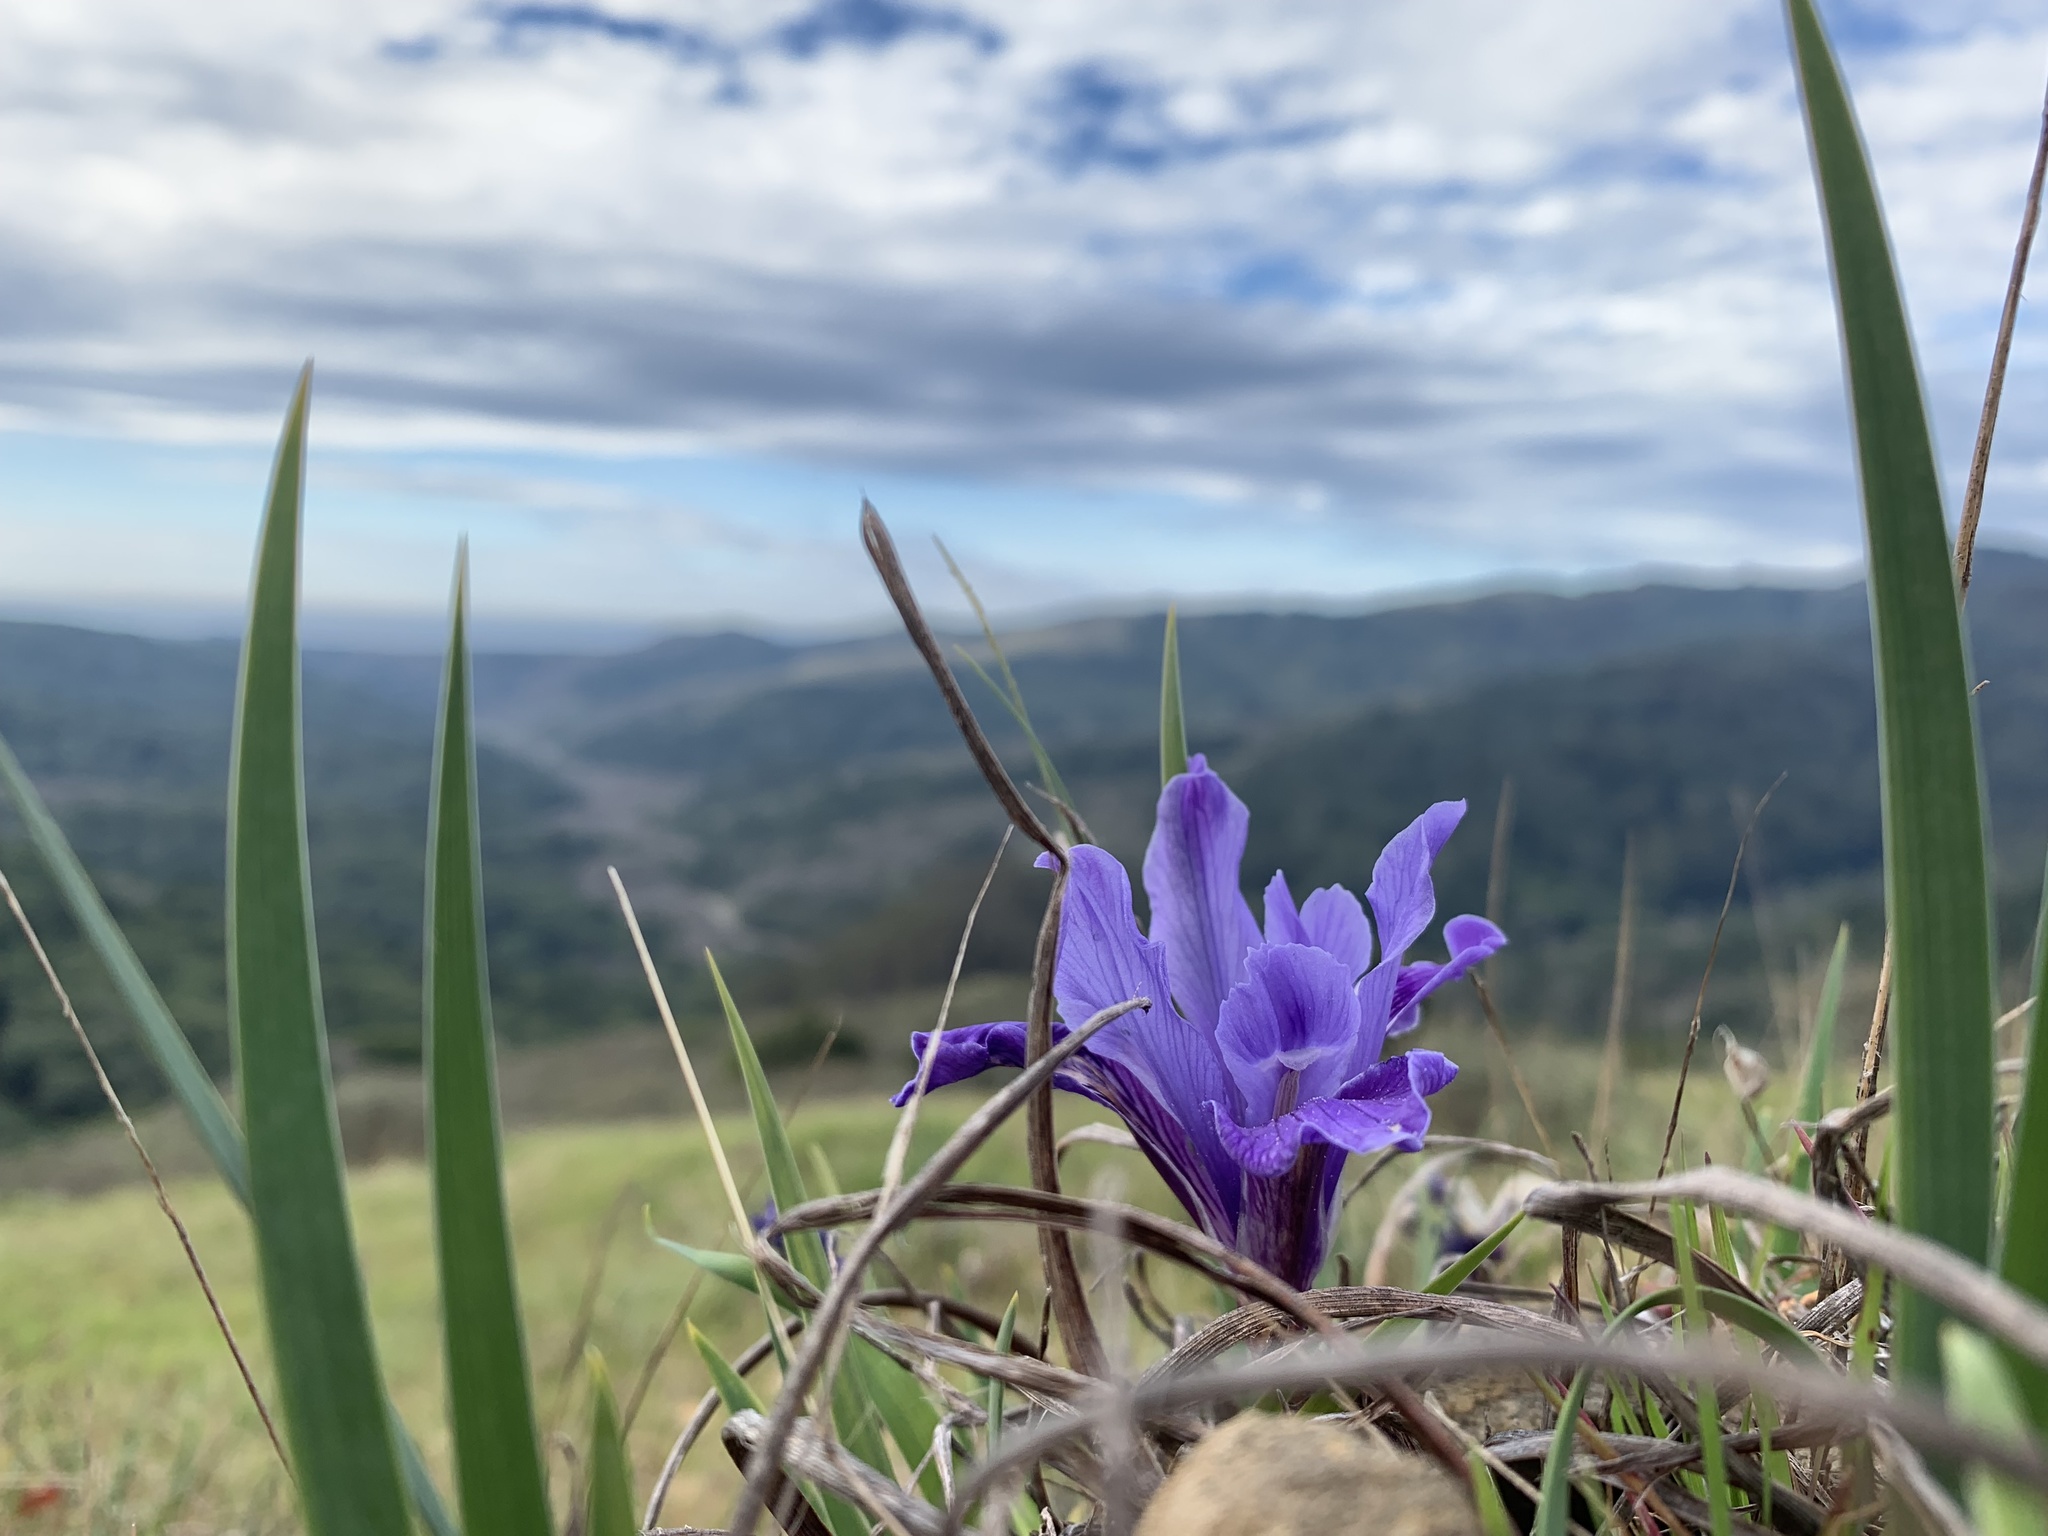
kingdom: Plantae
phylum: Tracheophyta
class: Liliopsida
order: Asparagales
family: Iridaceae
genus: Iris
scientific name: Iris macrosiphon
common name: Ground iris
